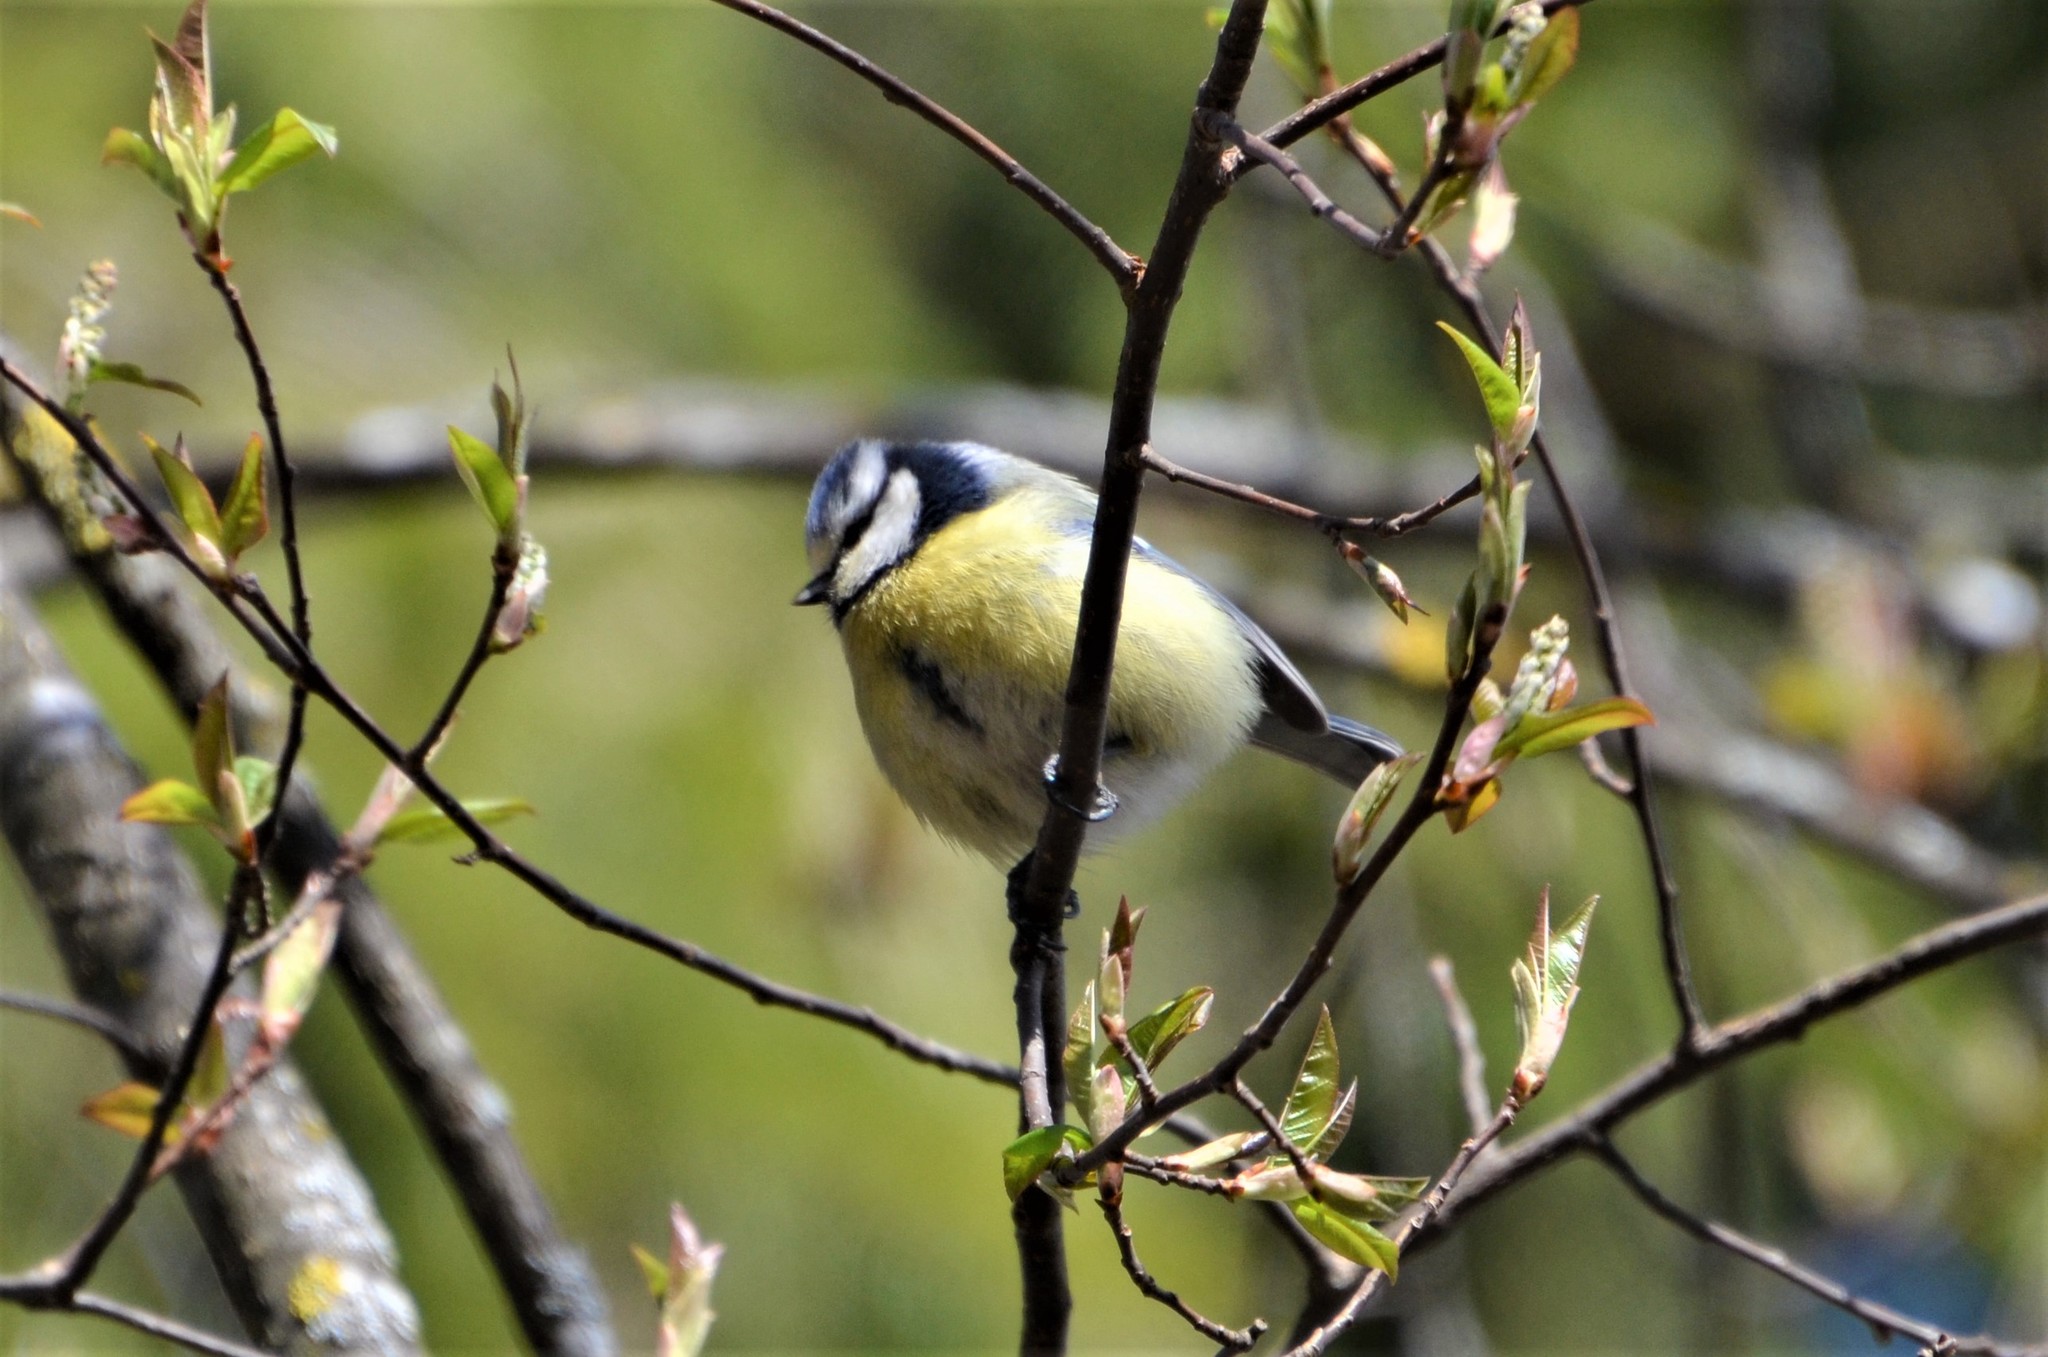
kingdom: Animalia
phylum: Chordata
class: Aves
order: Passeriformes
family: Paridae
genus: Cyanistes
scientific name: Cyanistes caeruleus
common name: Eurasian blue tit
